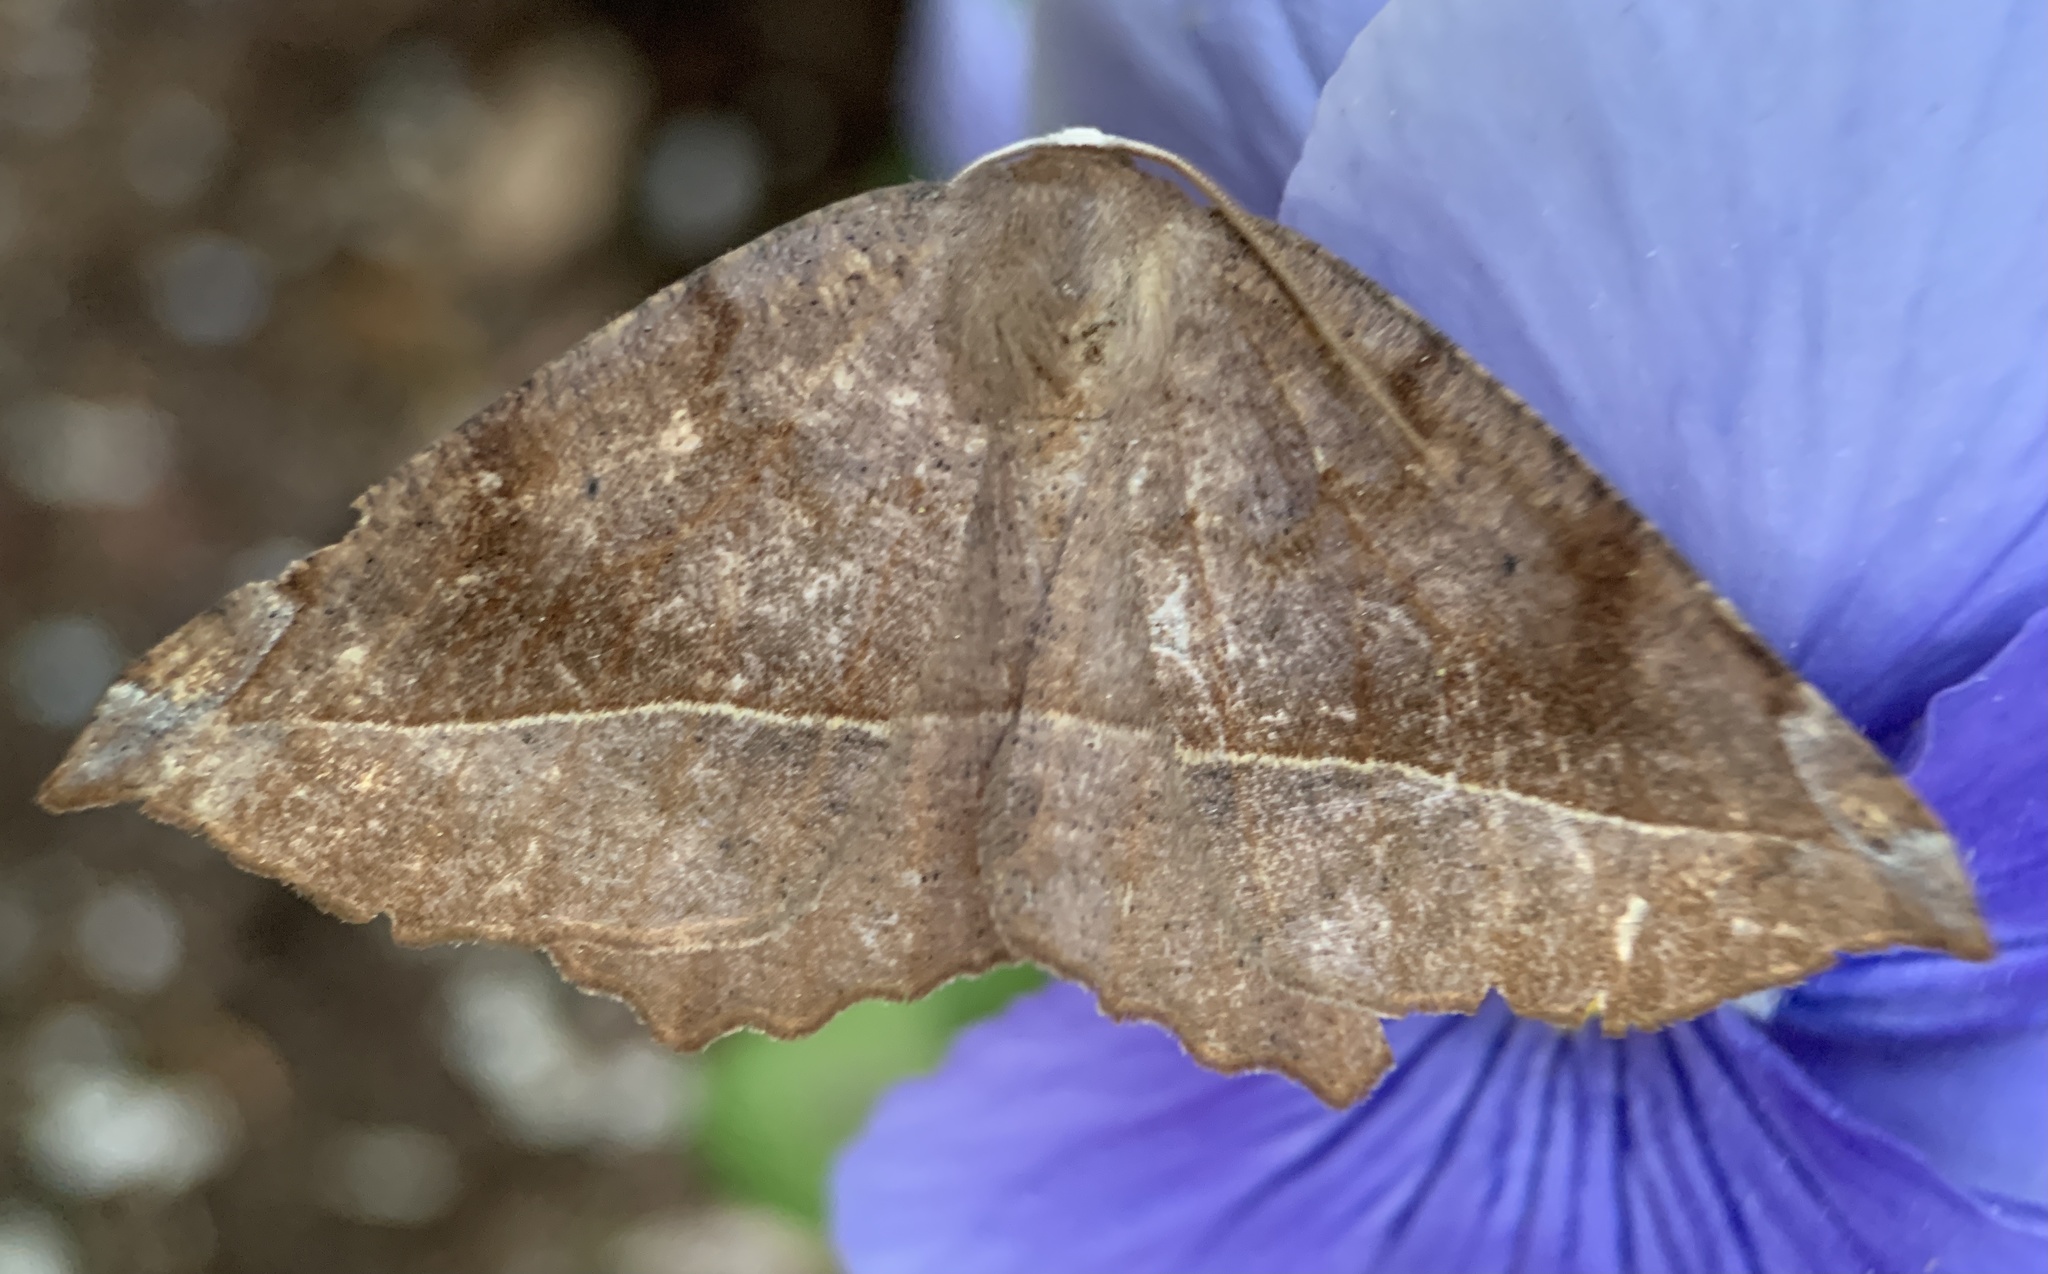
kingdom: Animalia
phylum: Arthropoda
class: Insecta
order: Lepidoptera
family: Geometridae
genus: Eutrapela
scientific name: Eutrapela clemataria
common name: Curved-toothed geometer
